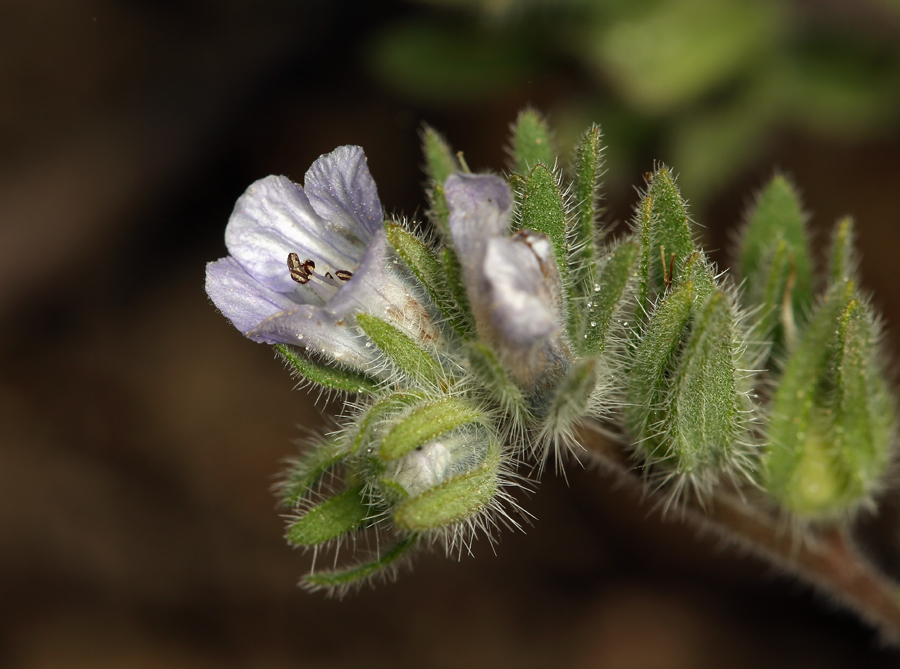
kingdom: Plantae
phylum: Tracheophyta
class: Magnoliopsida
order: Boraginales
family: Hydrophyllaceae
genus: Phacelia
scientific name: Phacelia congdonii
